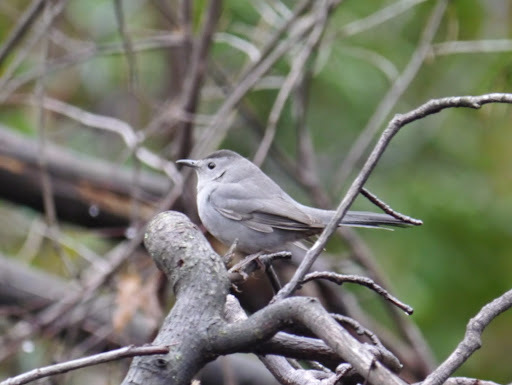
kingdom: Animalia
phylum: Chordata
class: Aves
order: Passeriformes
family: Mimidae
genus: Dumetella
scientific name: Dumetella carolinensis
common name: Gray catbird
